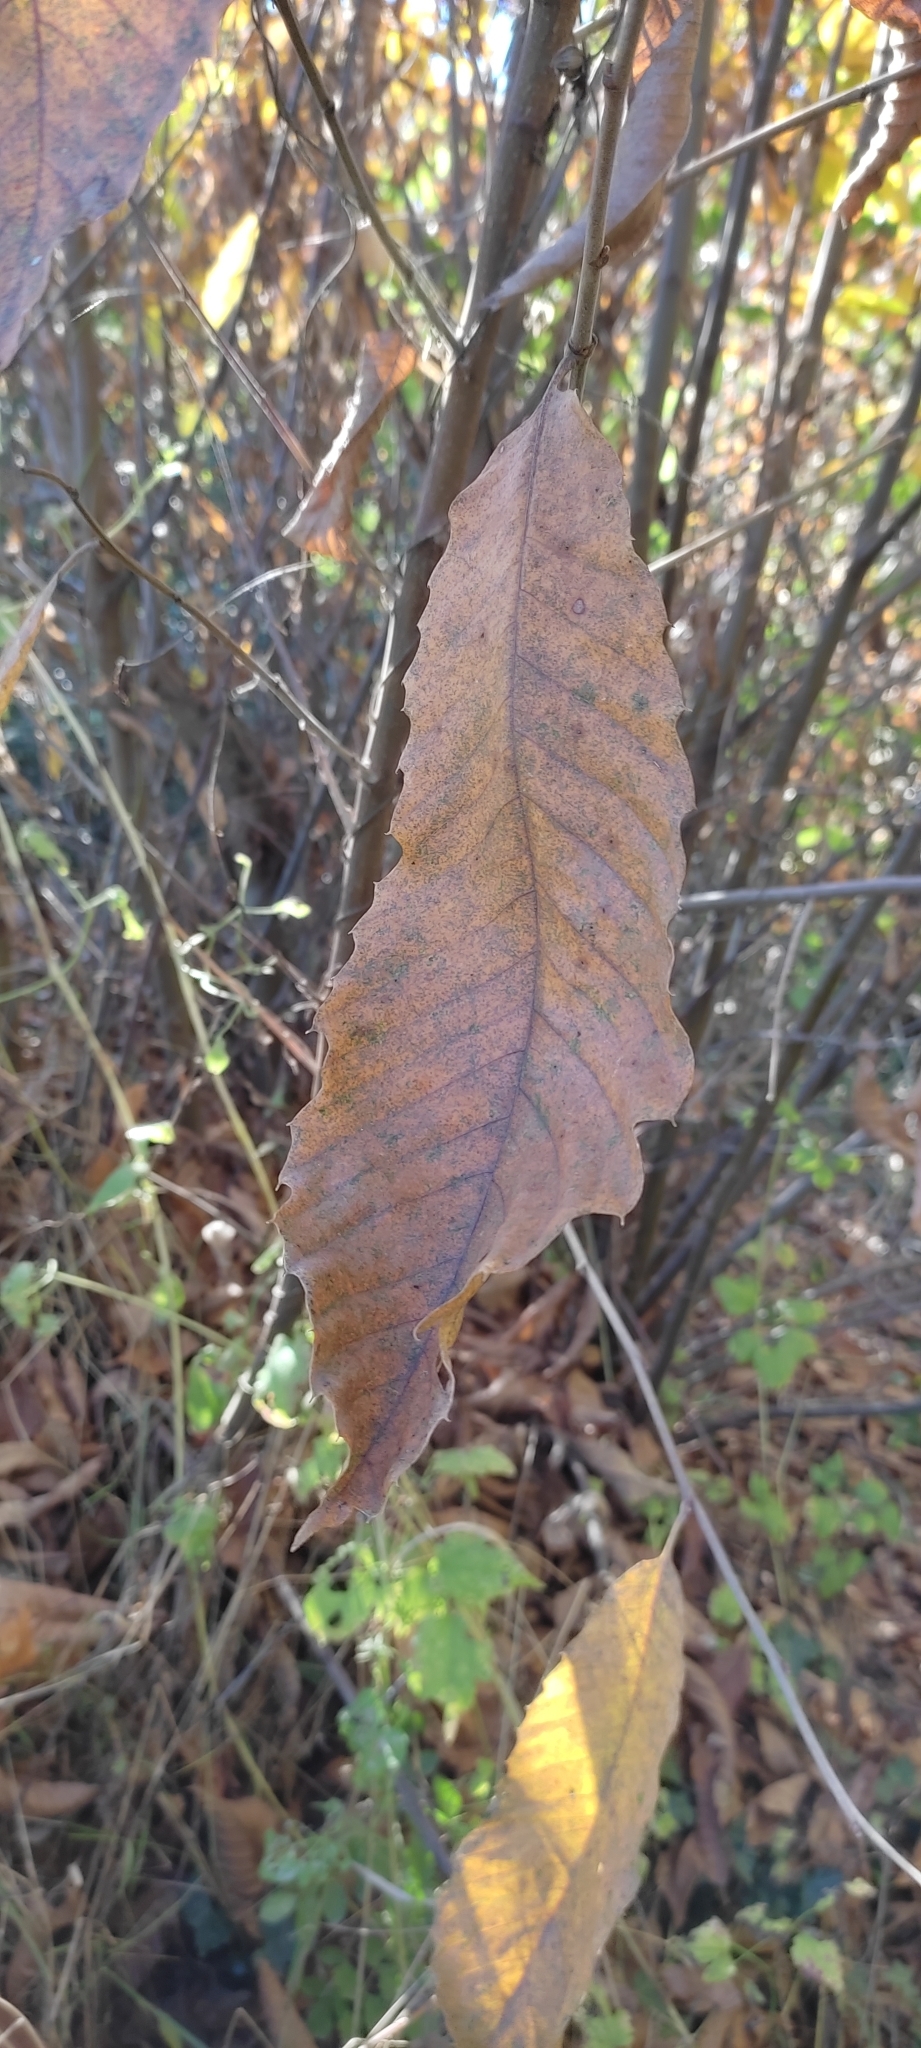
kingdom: Plantae
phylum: Tracheophyta
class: Magnoliopsida
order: Fagales
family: Fagaceae
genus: Castanea
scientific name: Castanea sativa
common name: Sweet chestnut
